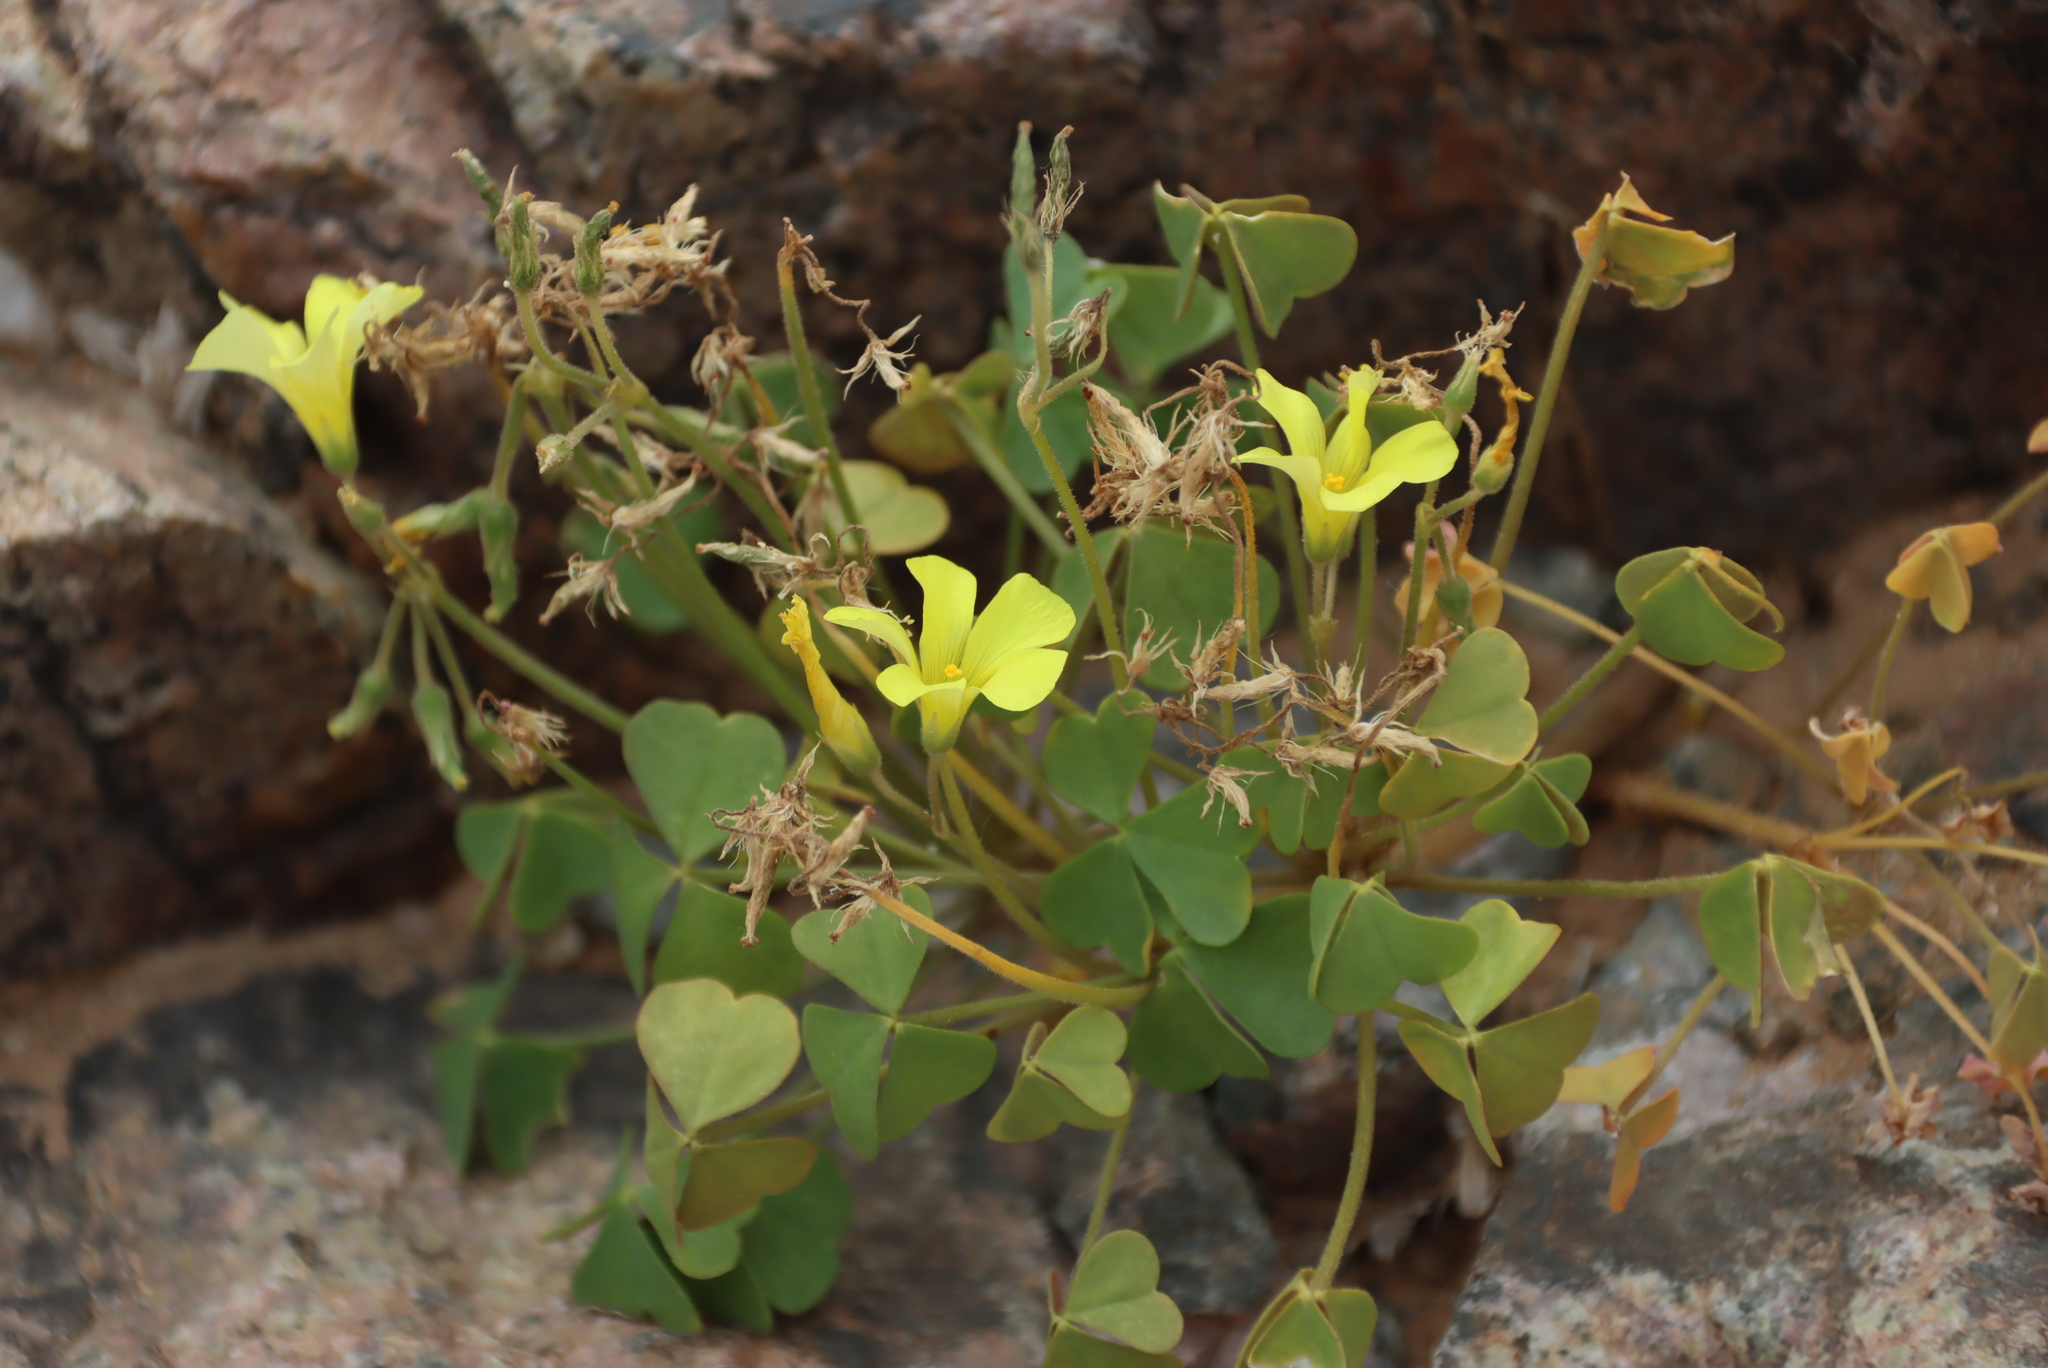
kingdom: Plantae
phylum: Tracheophyta
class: Magnoliopsida
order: Oxalidales
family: Oxalidaceae
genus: Oxalis
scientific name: Oxalis copiosa
